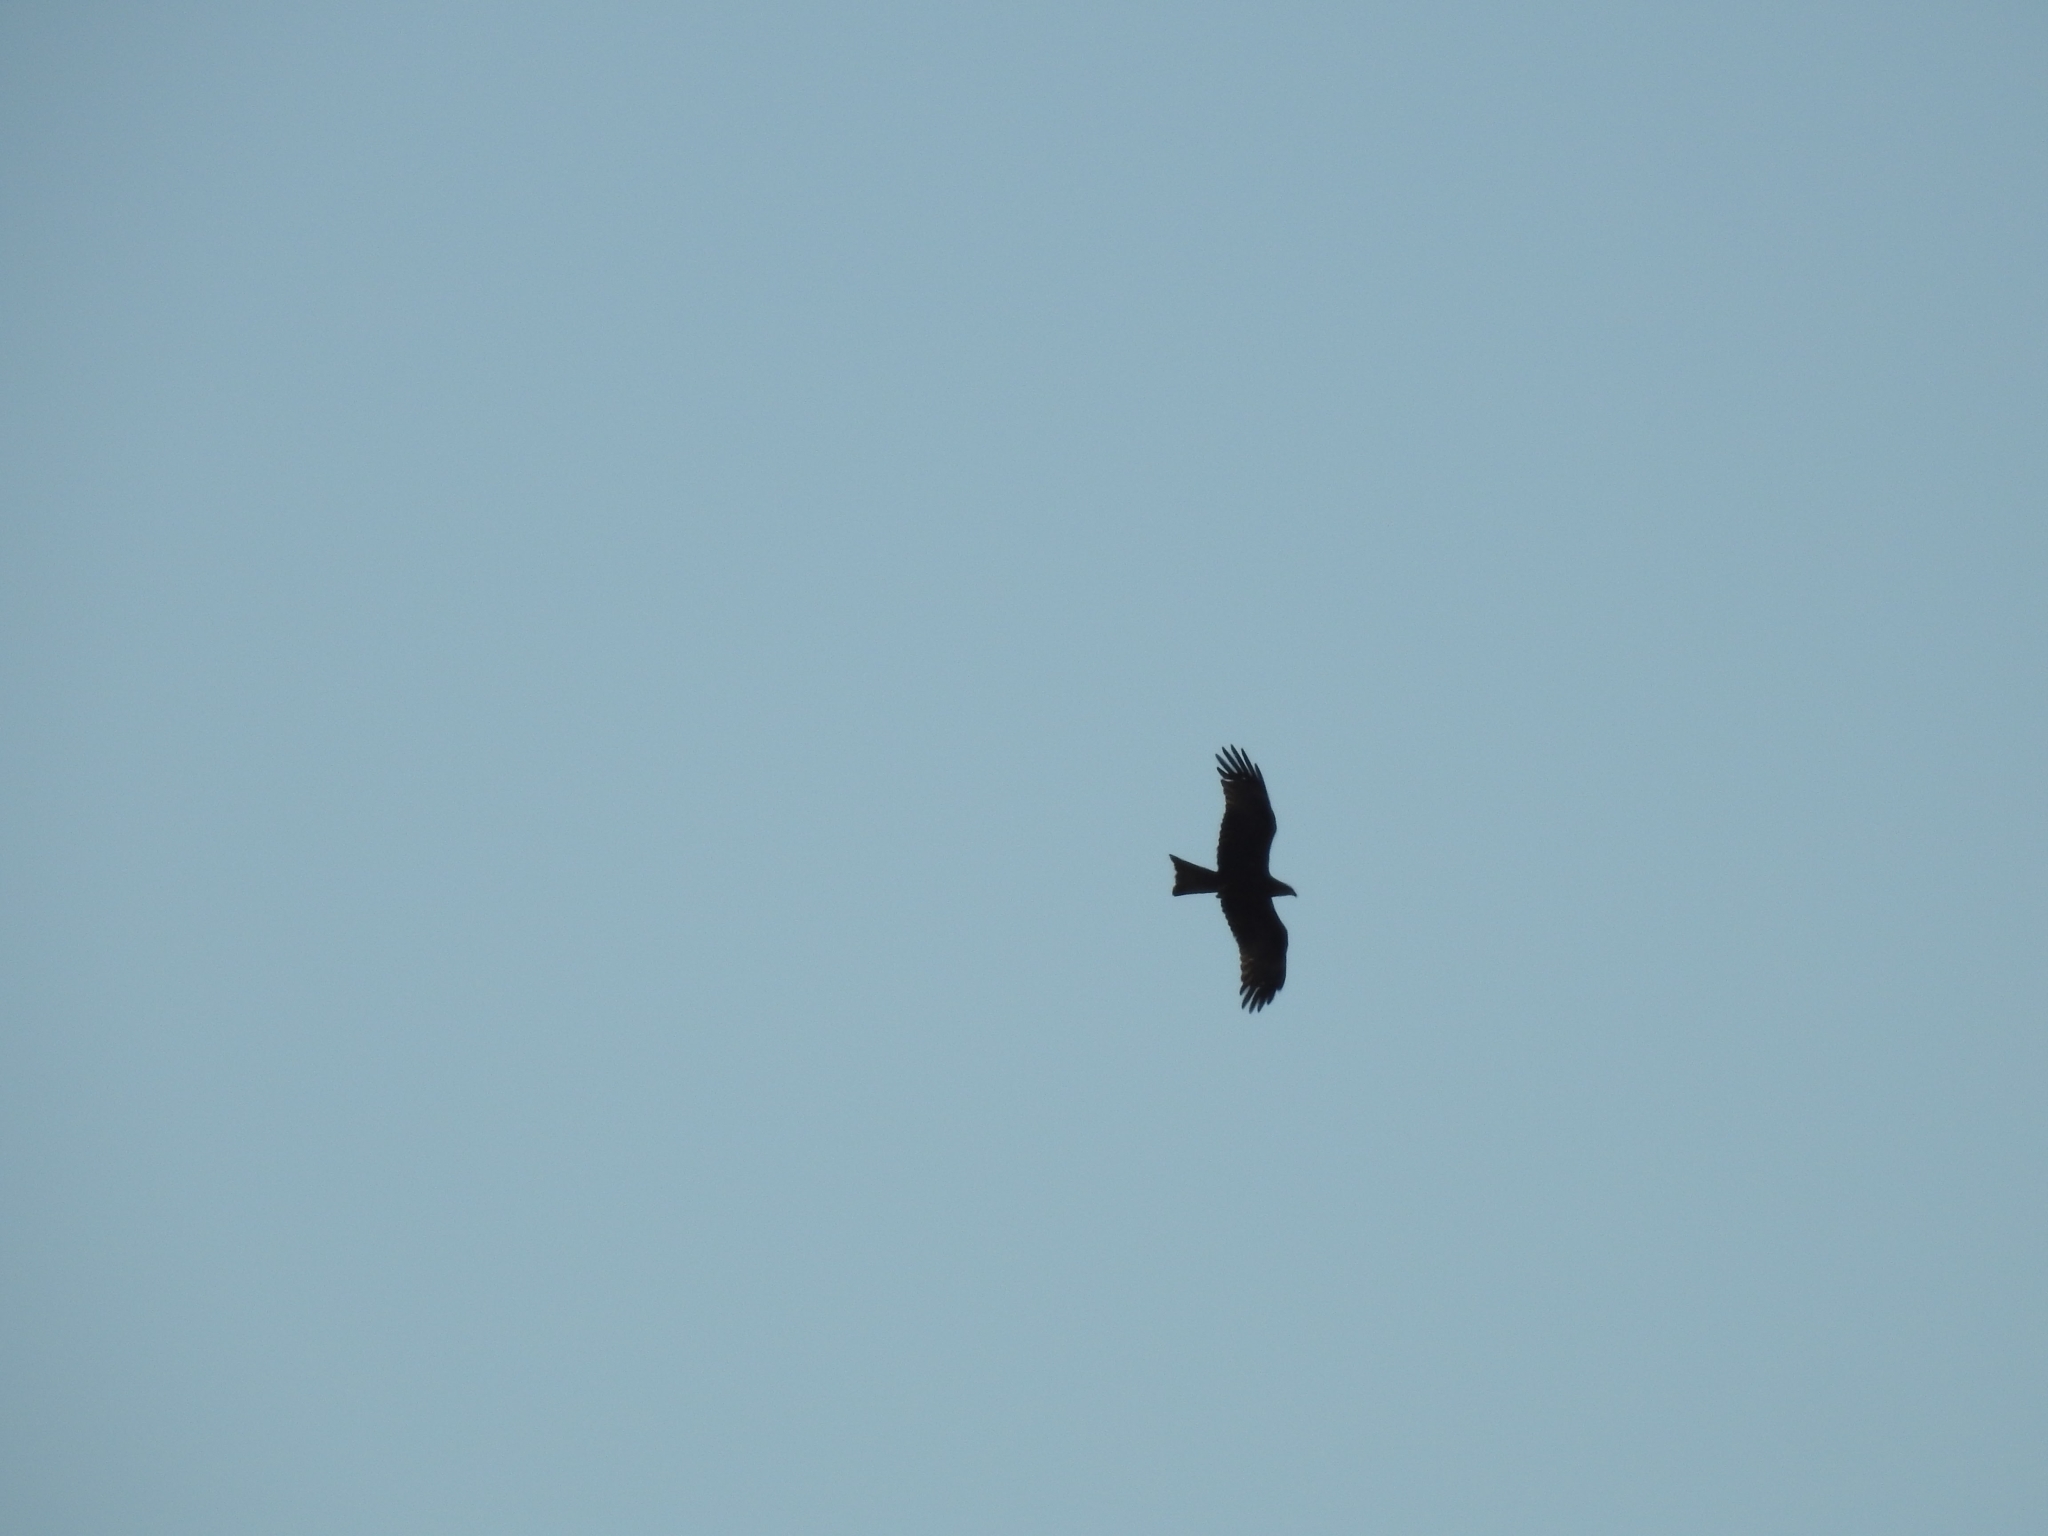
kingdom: Animalia
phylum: Chordata
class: Aves
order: Accipitriformes
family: Accipitridae
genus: Milvus
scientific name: Milvus migrans
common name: Black kite
